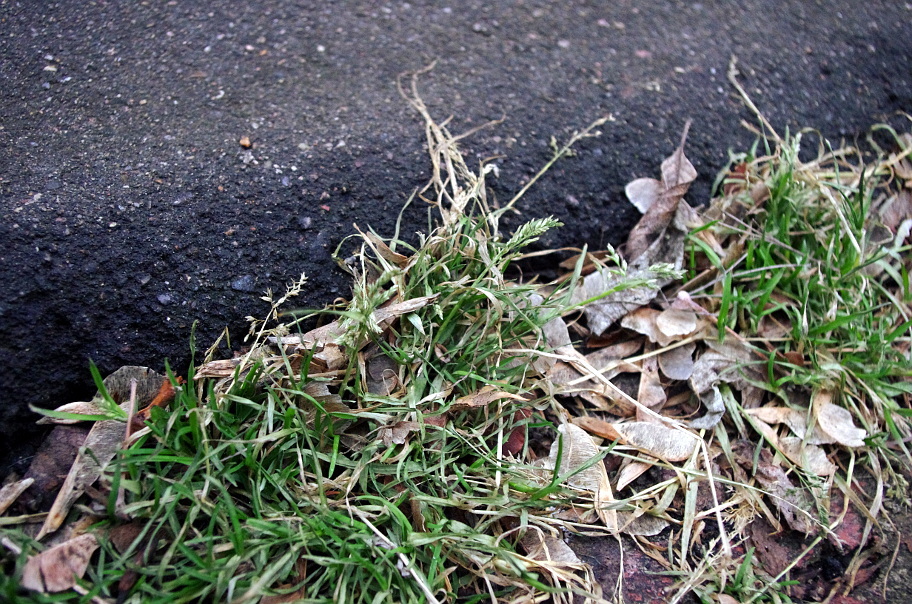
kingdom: Plantae
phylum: Tracheophyta
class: Liliopsida
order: Poales
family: Poaceae
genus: Poa
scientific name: Poa annua
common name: Annual bluegrass
